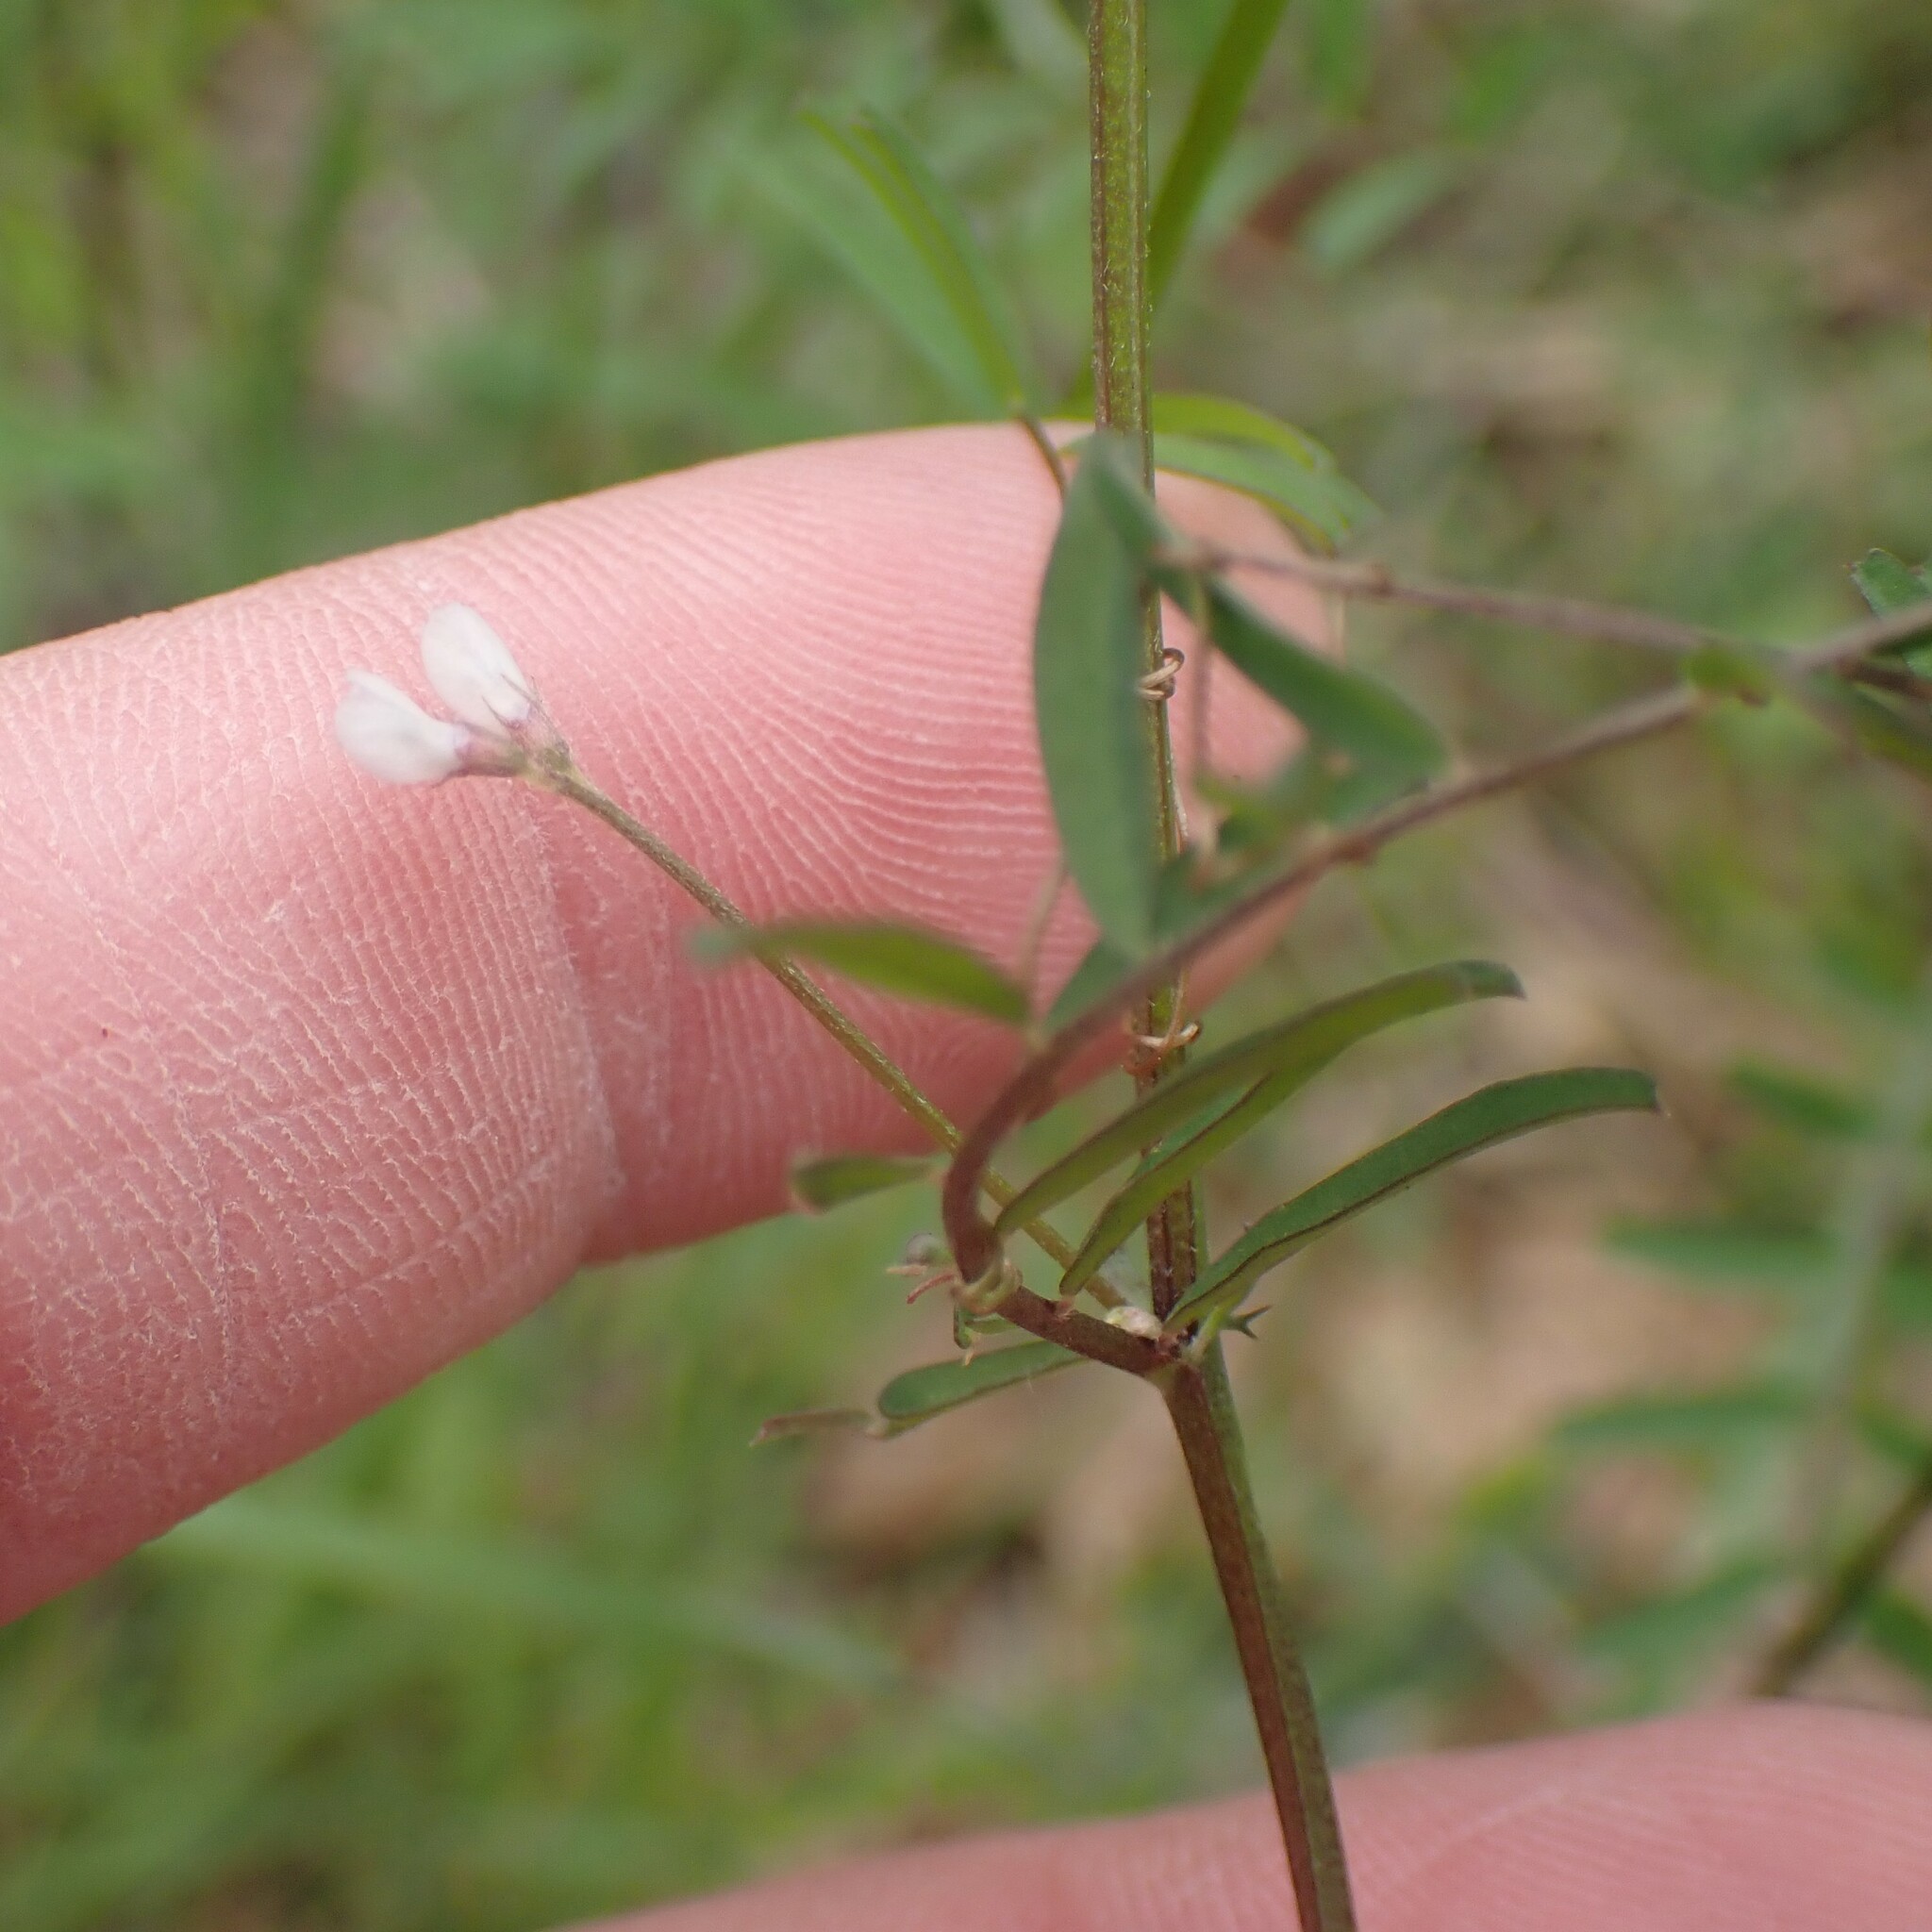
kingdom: Plantae
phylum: Tracheophyta
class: Magnoliopsida
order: Fabales
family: Fabaceae
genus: Vicia
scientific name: Vicia hirsuta
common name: Tiny vetch
